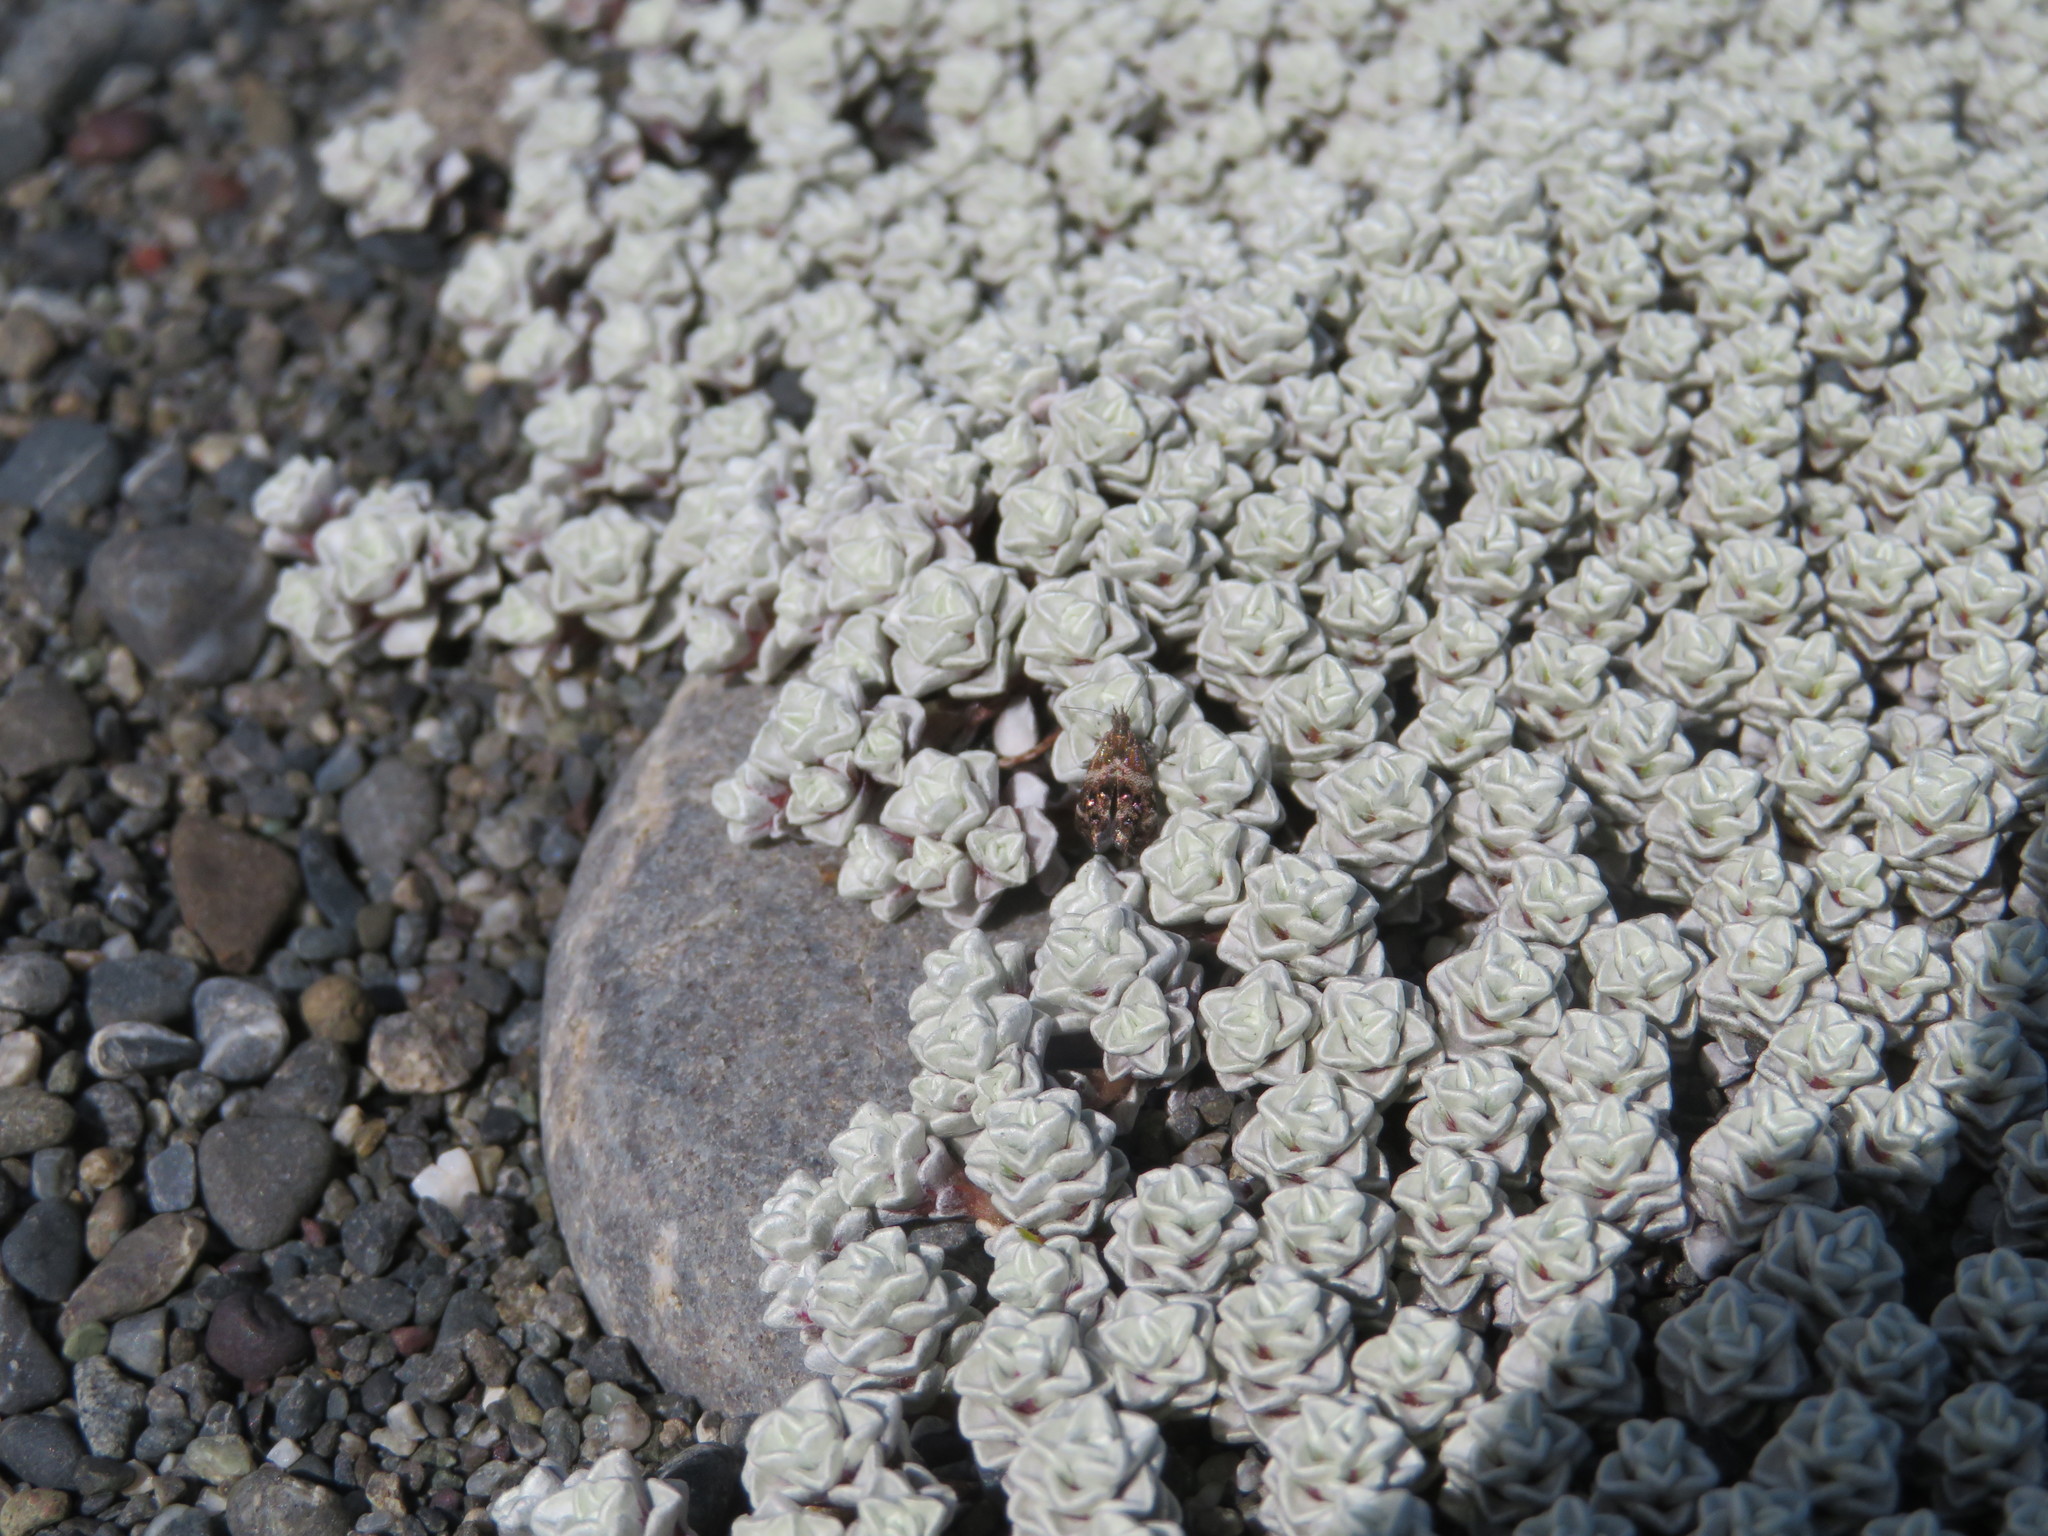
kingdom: Animalia
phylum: Arthropoda
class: Insecta
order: Lepidoptera
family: Choreutidae
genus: Tebenna
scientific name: Tebenna micalis
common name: Vagrant twitcher
